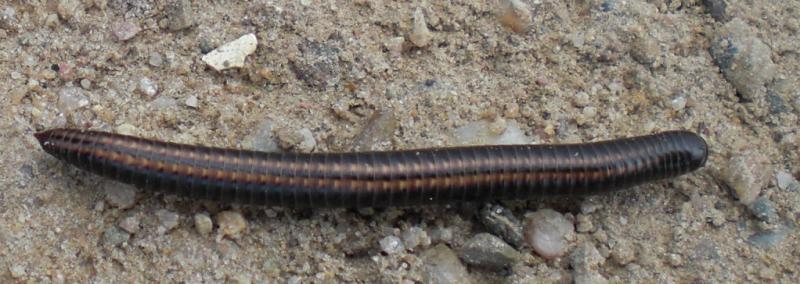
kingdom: Animalia
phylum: Arthropoda
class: Diplopoda
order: Julida
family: Julidae
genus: Ommatoiulus
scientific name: Ommatoiulus sabulosus
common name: Striped millipede
